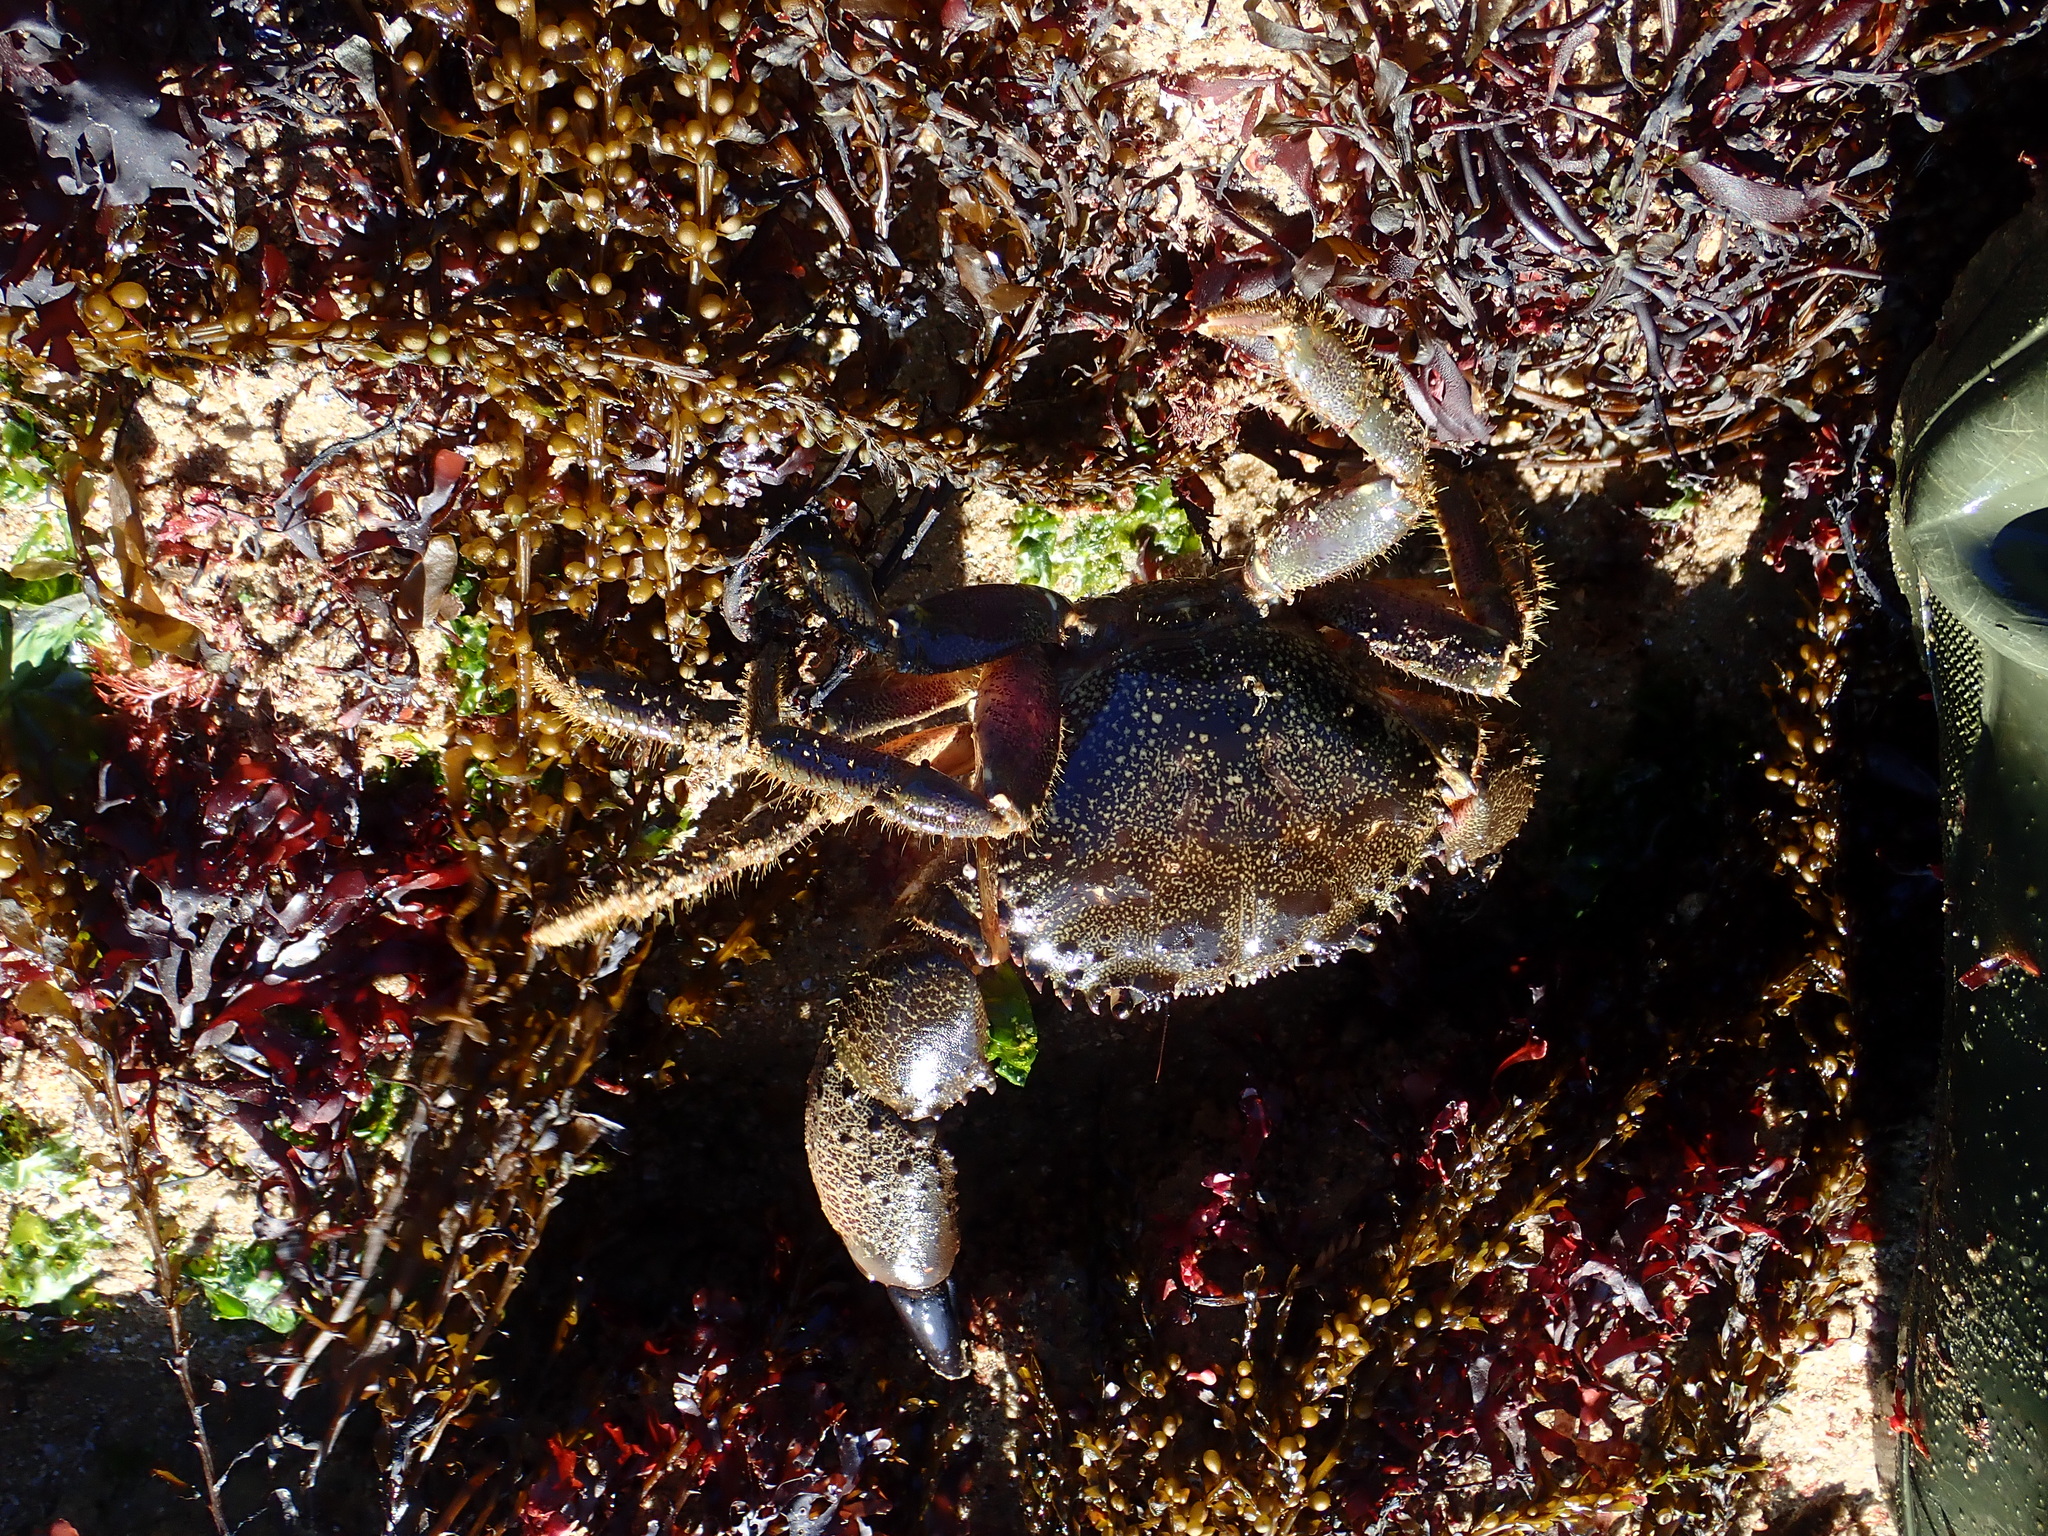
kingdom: Animalia
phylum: Arthropoda
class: Malacostraca
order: Decapoda
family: Eriphiidae
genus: Eriphia
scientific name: Eriphia verrucosa
